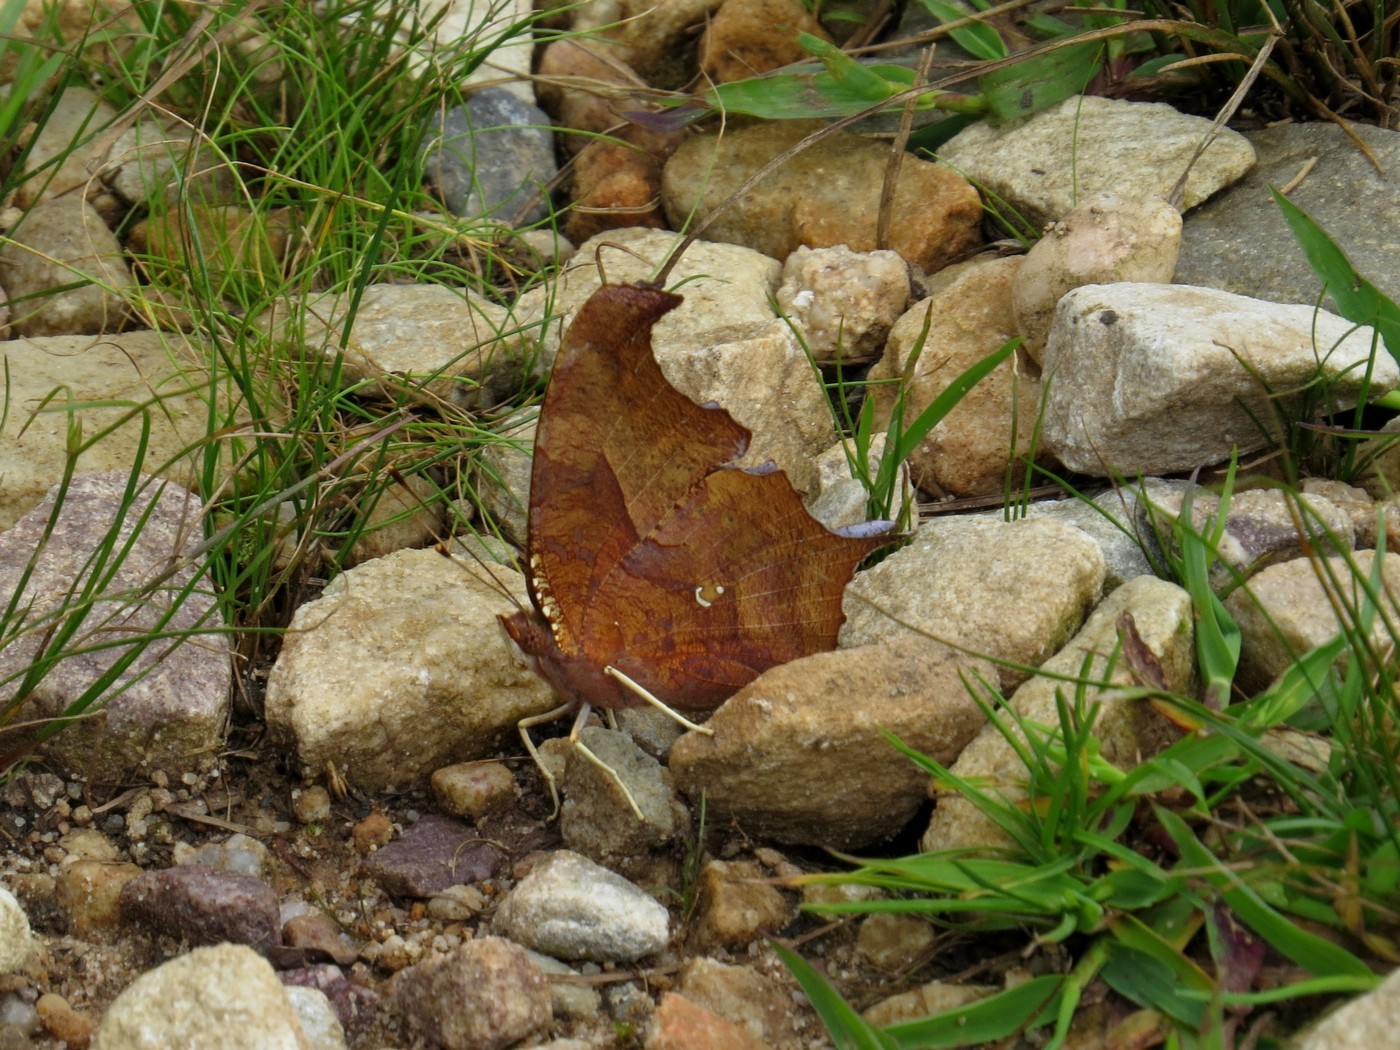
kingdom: Animalia
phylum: Arthropoda
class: Insecta
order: Lepidoptera
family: Nymphalidae
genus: Polygonia
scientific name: Polygonia interrogationis
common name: Question mark
